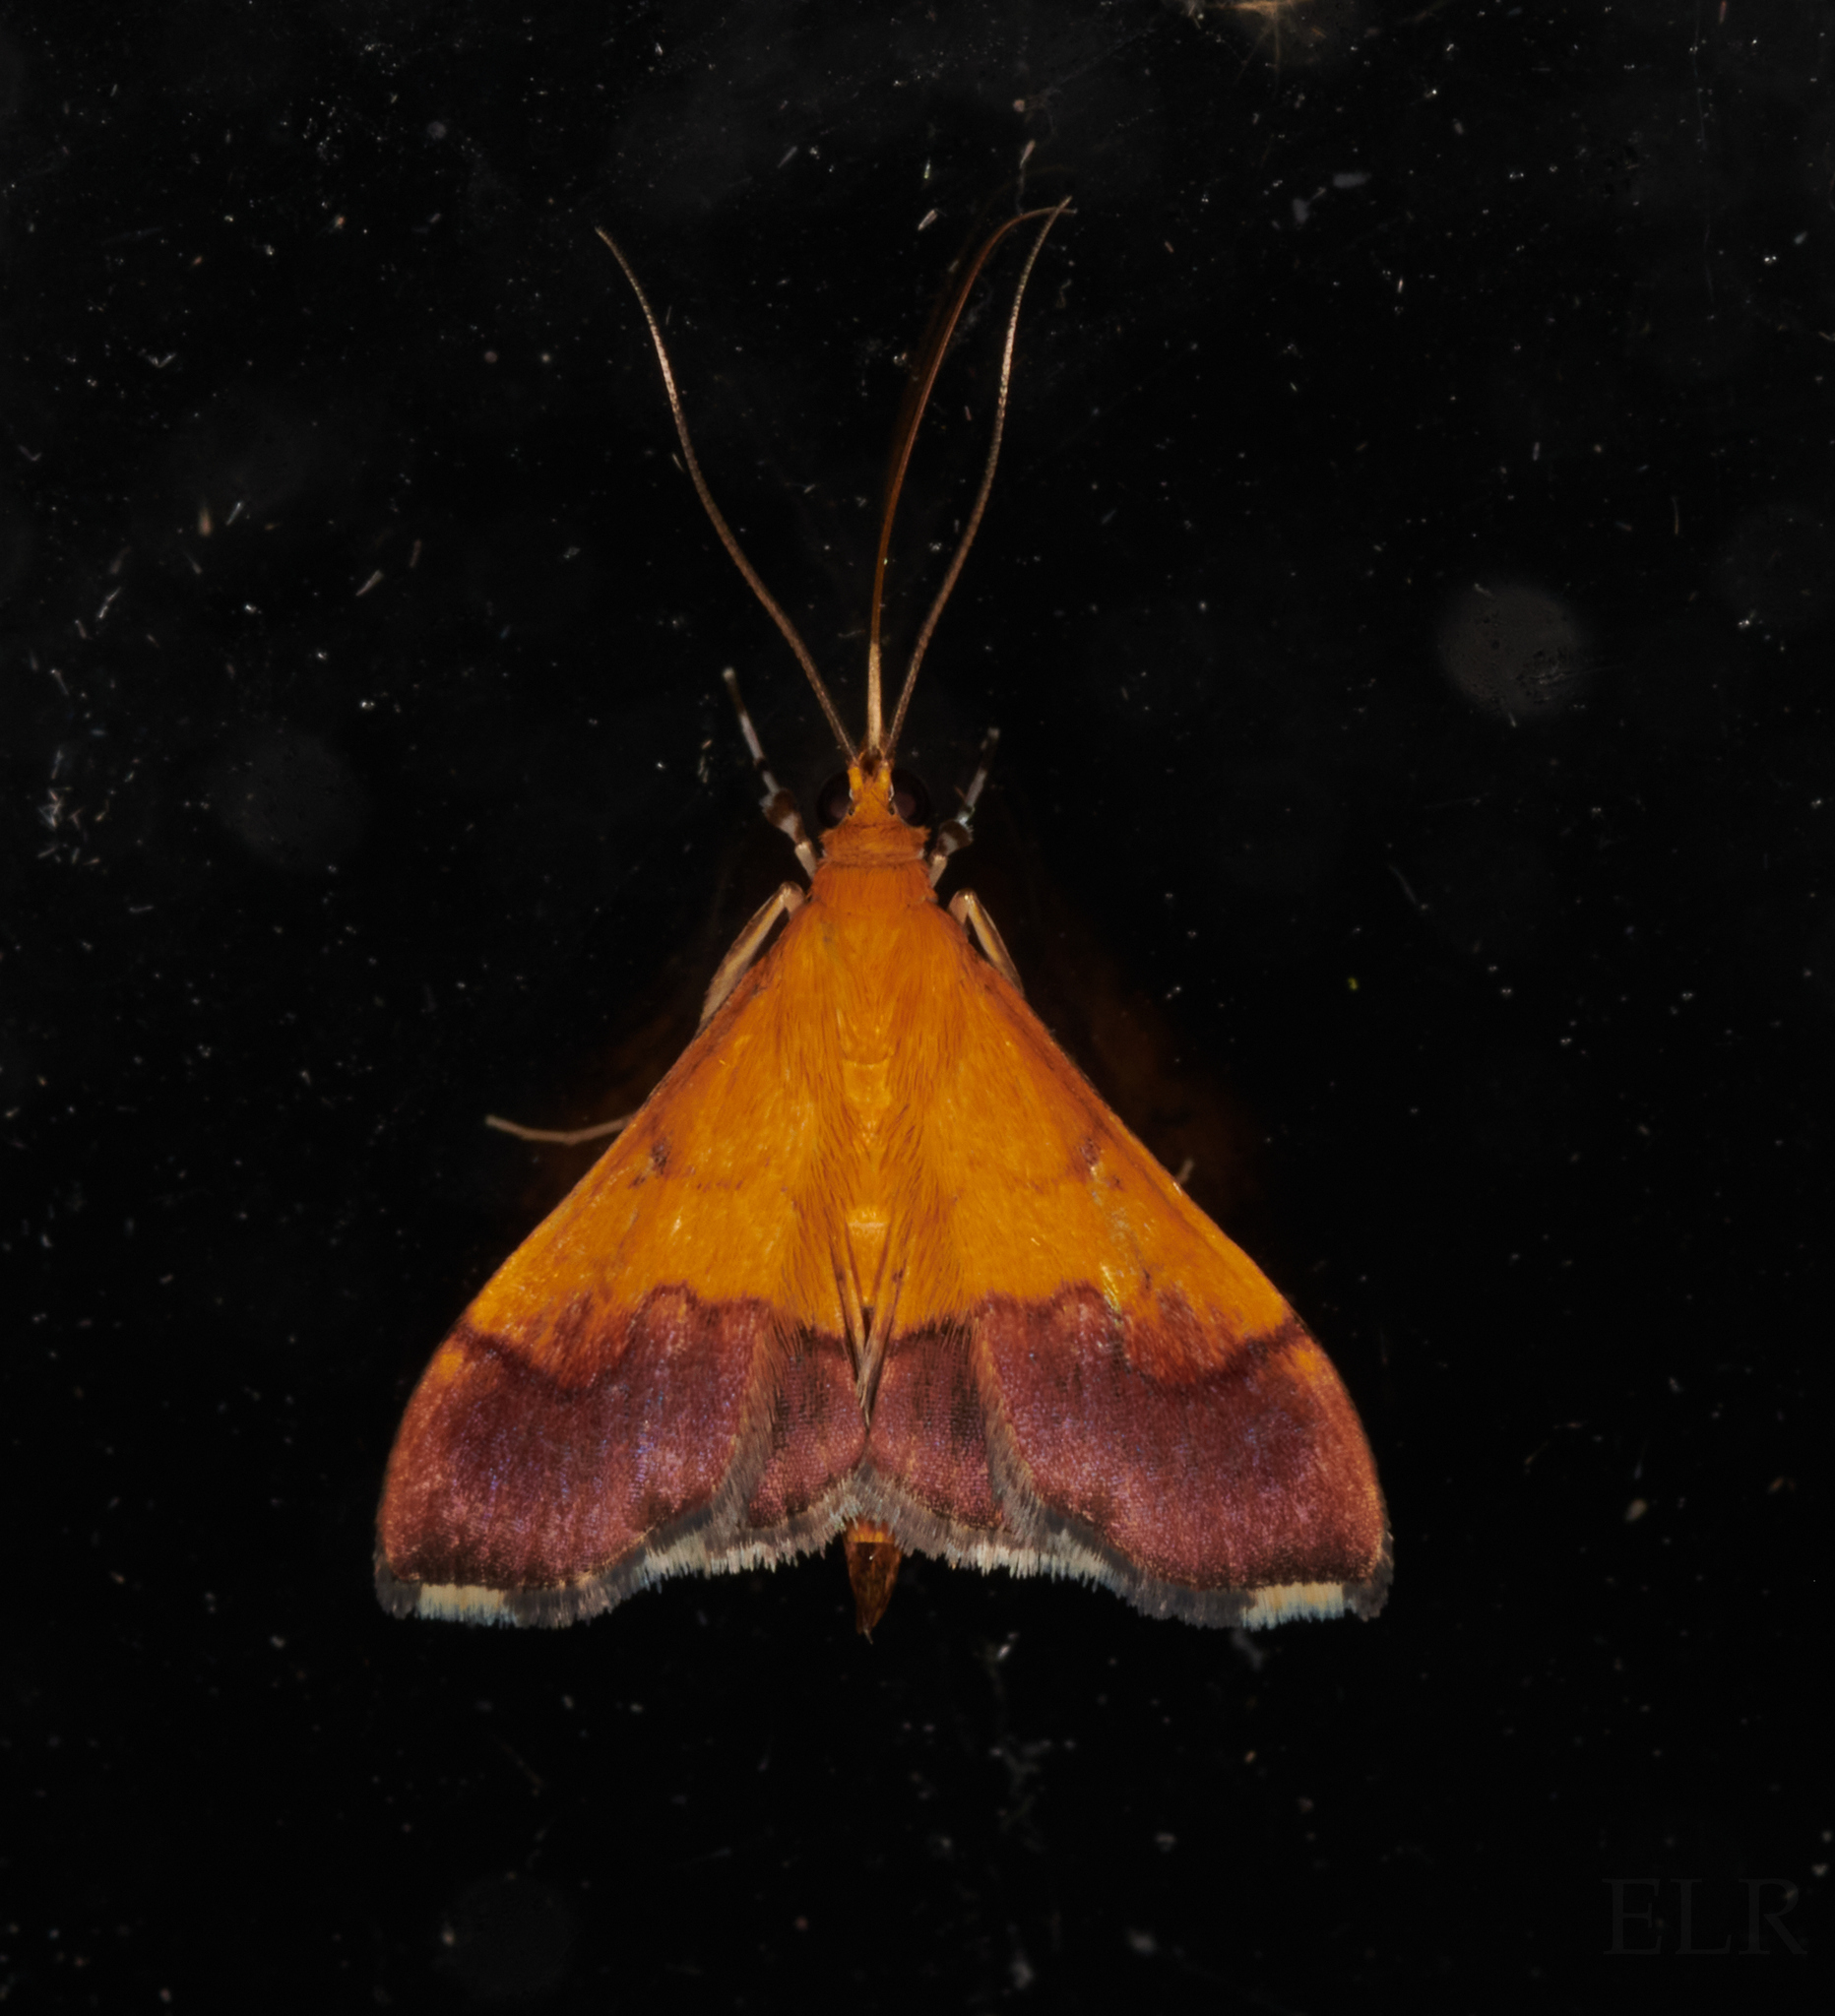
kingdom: Animalia
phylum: Arthropoda
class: Insecta
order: Lepidoptera
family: Crambidae
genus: Pyrausta
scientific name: Pyrausta bicoloralis
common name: Bicolored pyrausta moth
